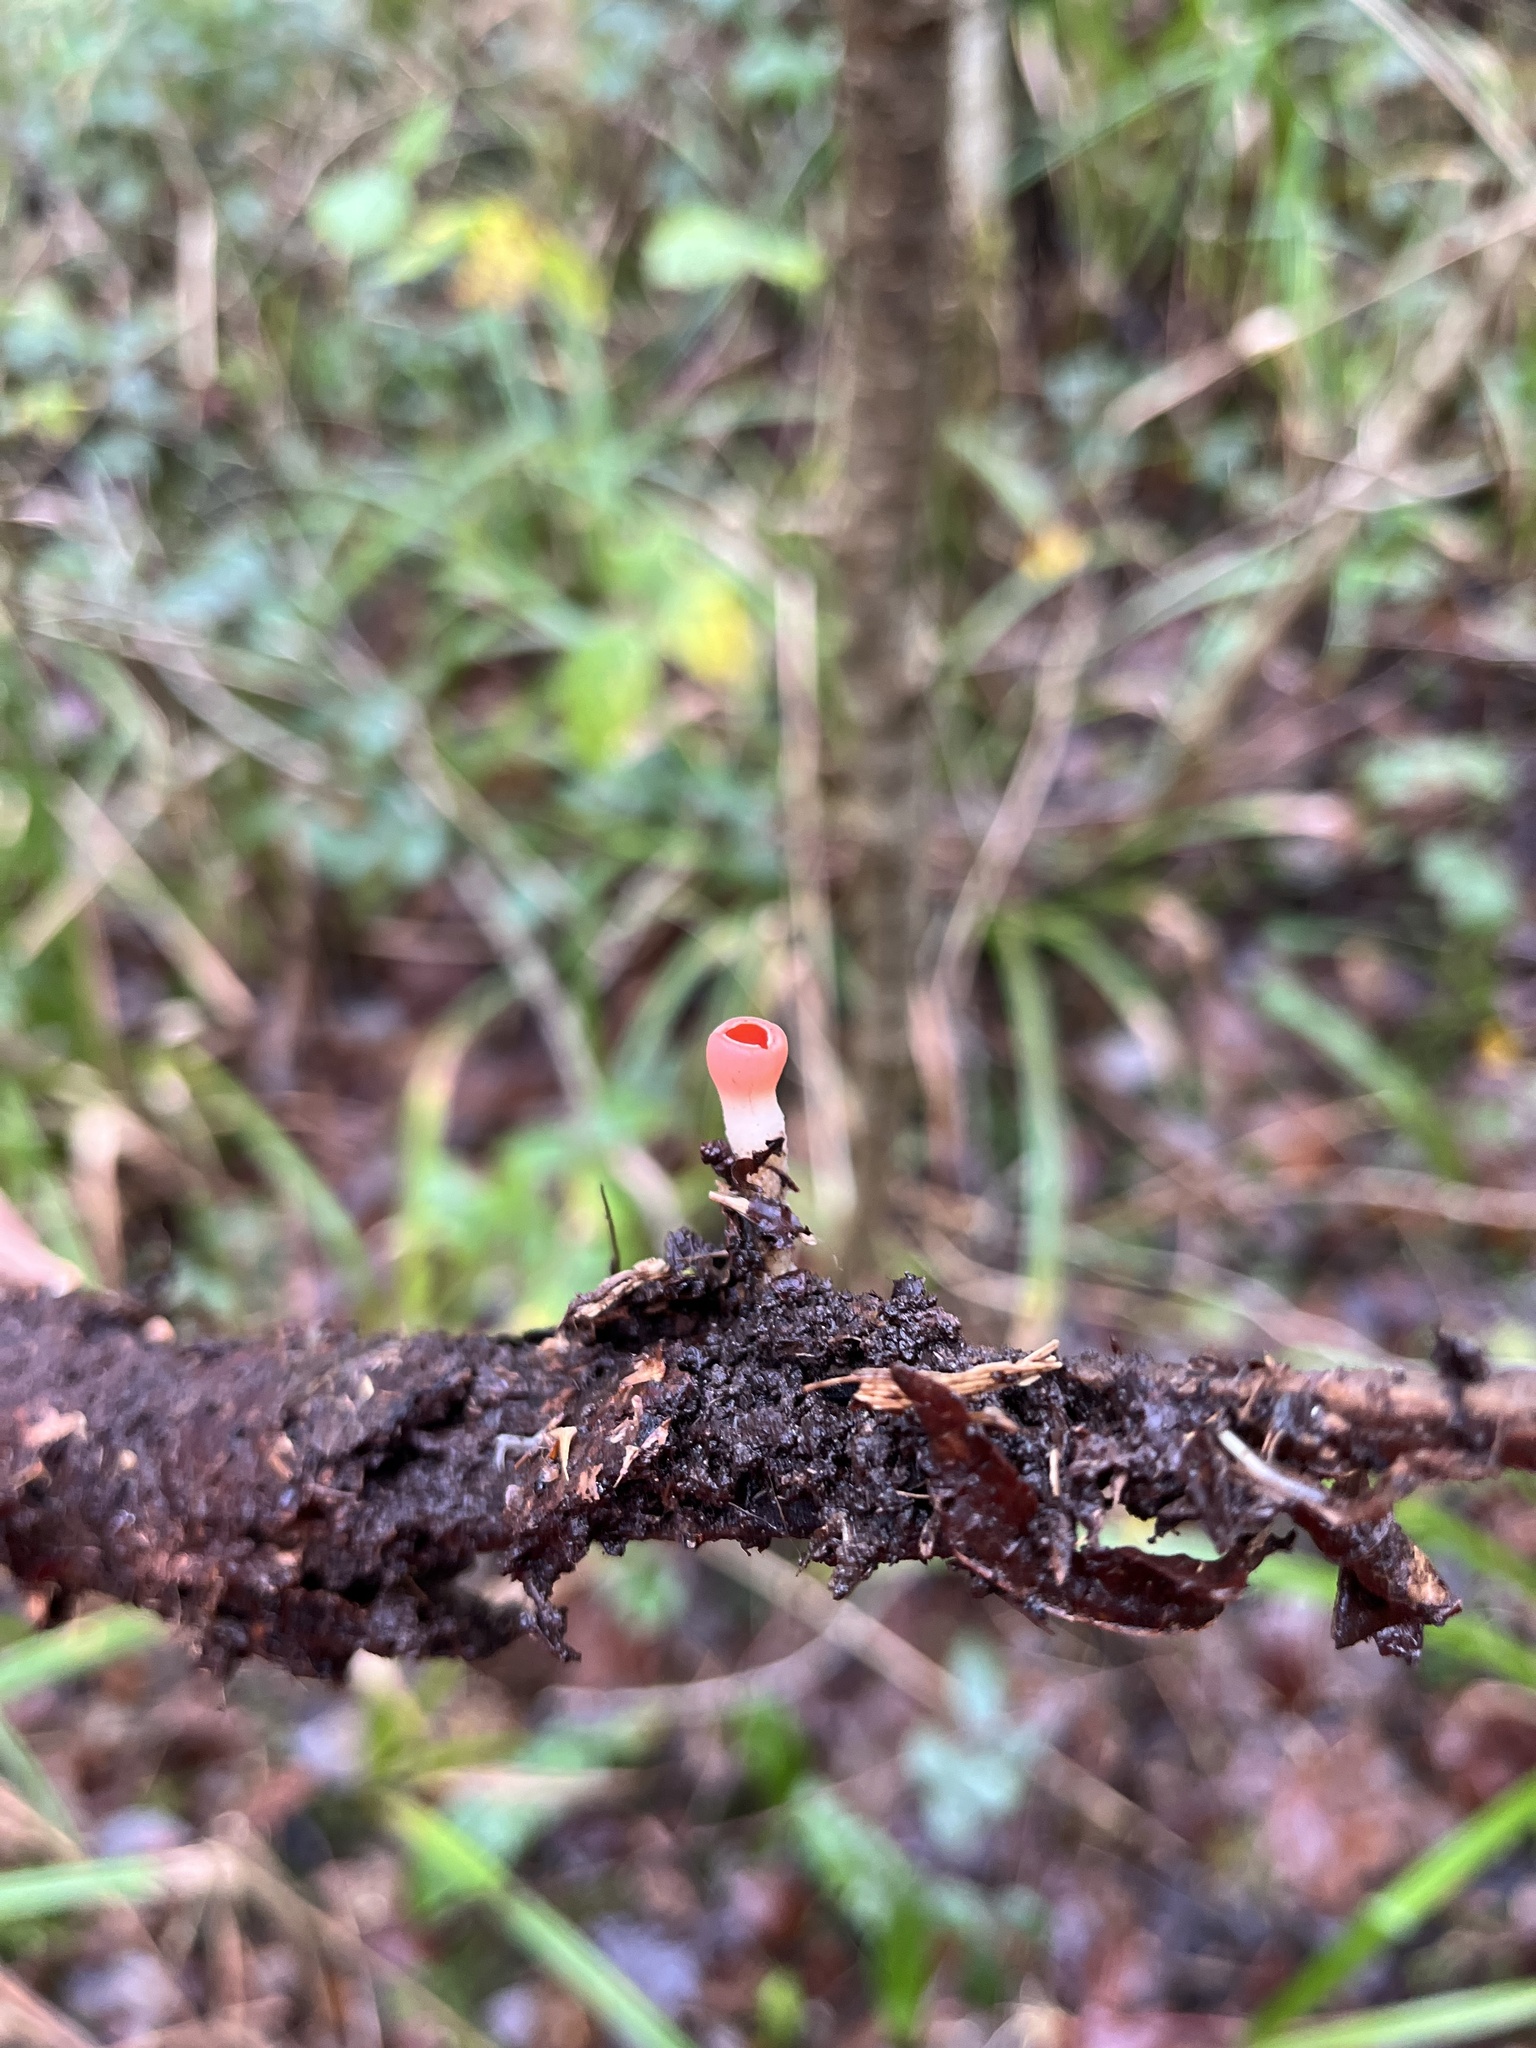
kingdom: Fungi
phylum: Ascomycota
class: Pezizomycetes
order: Pezizales
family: Sarcoscyphaceae
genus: Sarcoscypha
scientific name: Sarcoscypha
